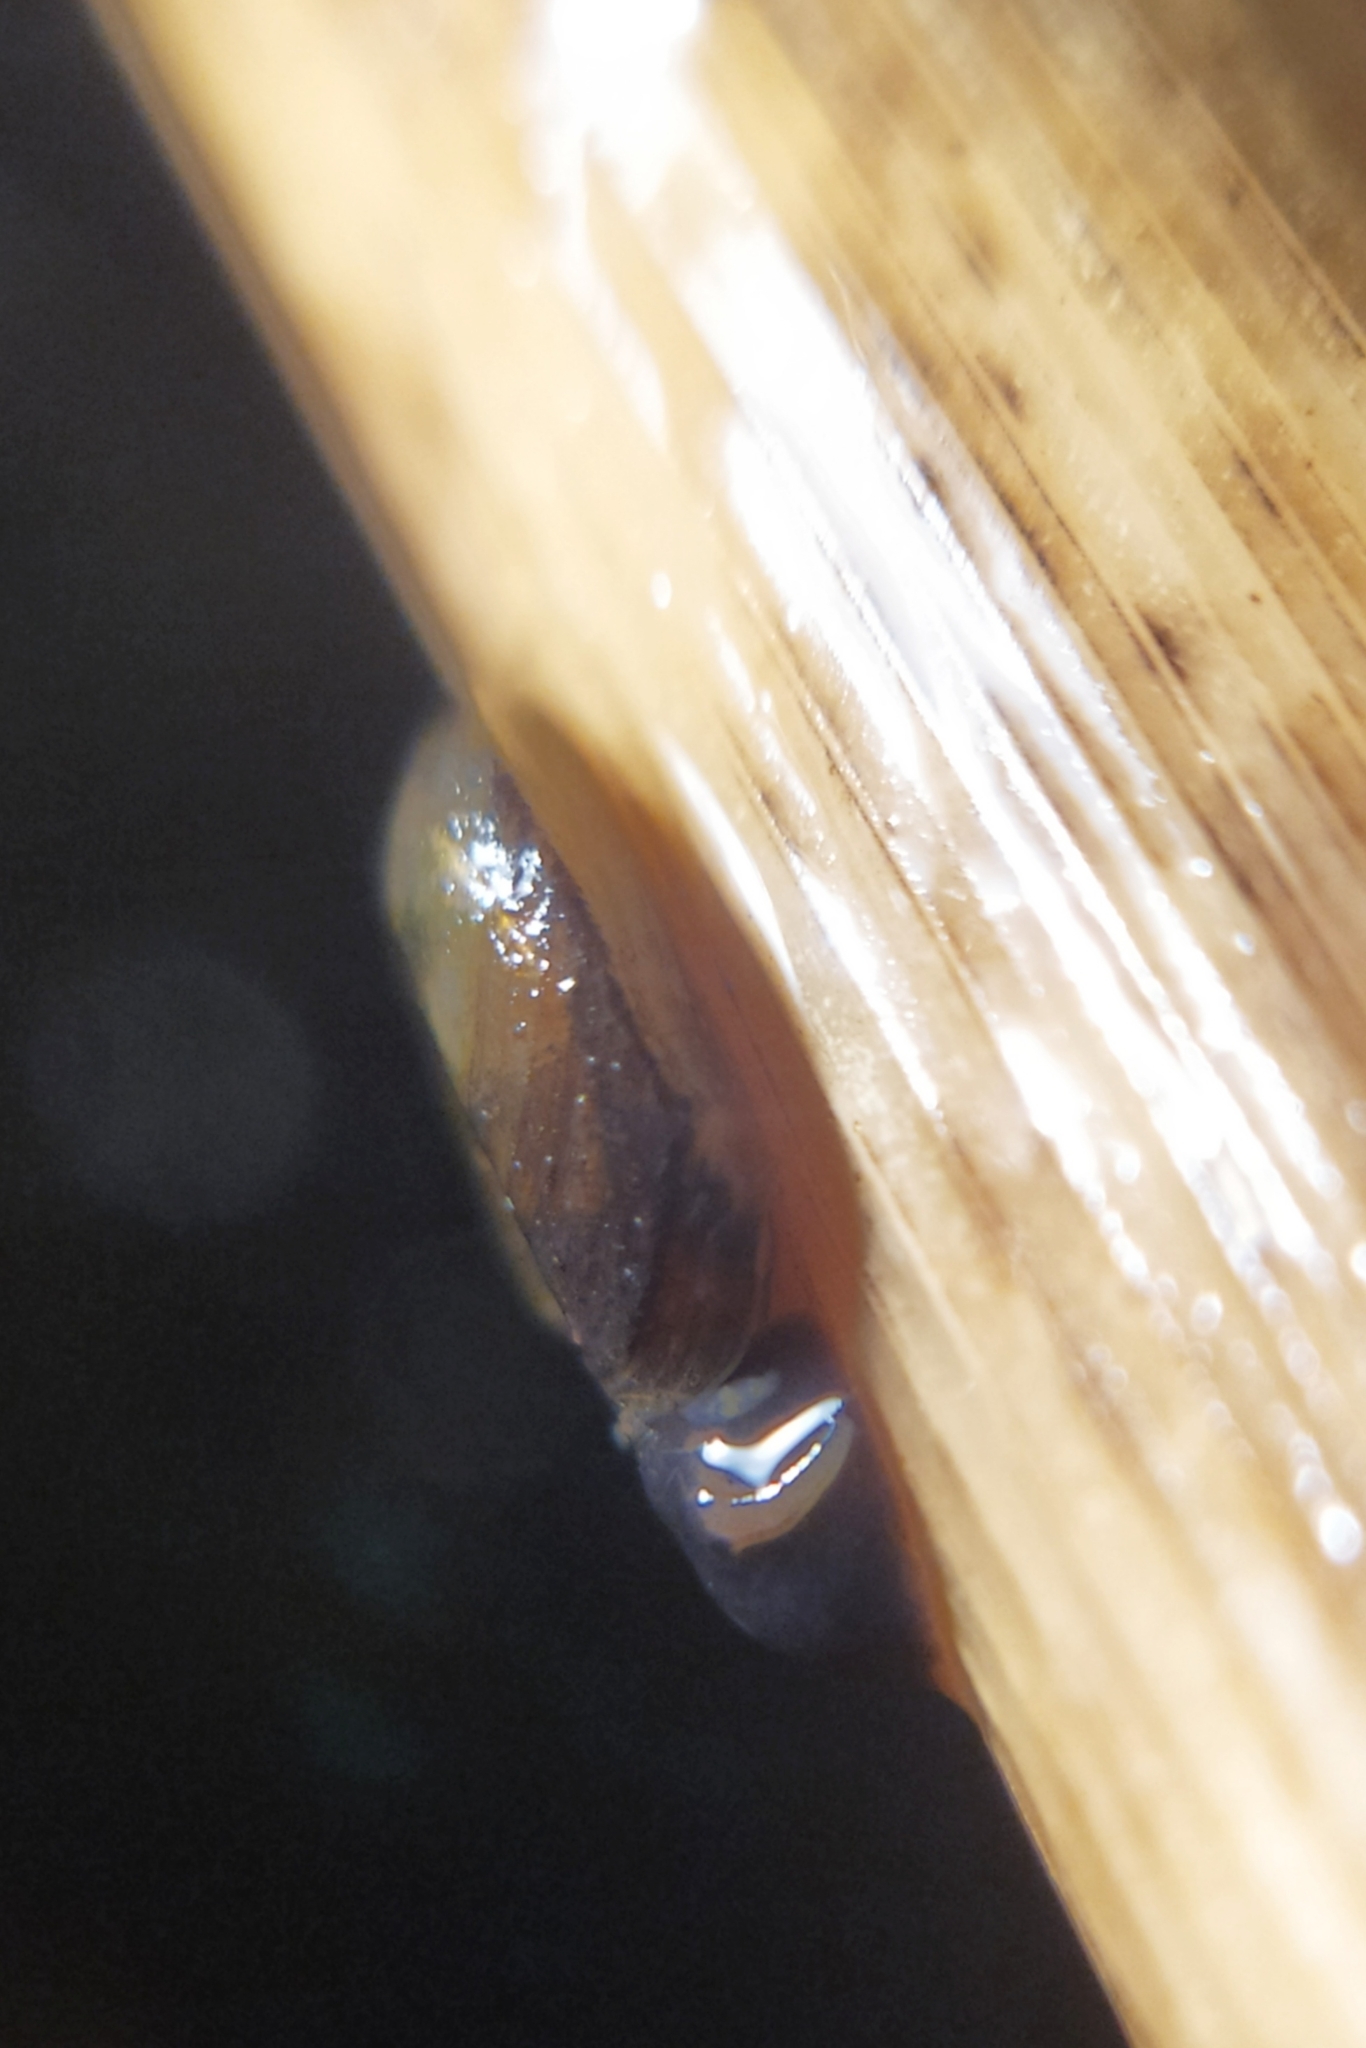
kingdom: Animalia
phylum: Mollusca
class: Gastropoda
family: Planorbidae
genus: Planorbis
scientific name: Planorbis planorbis
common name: Margined ramshorn
